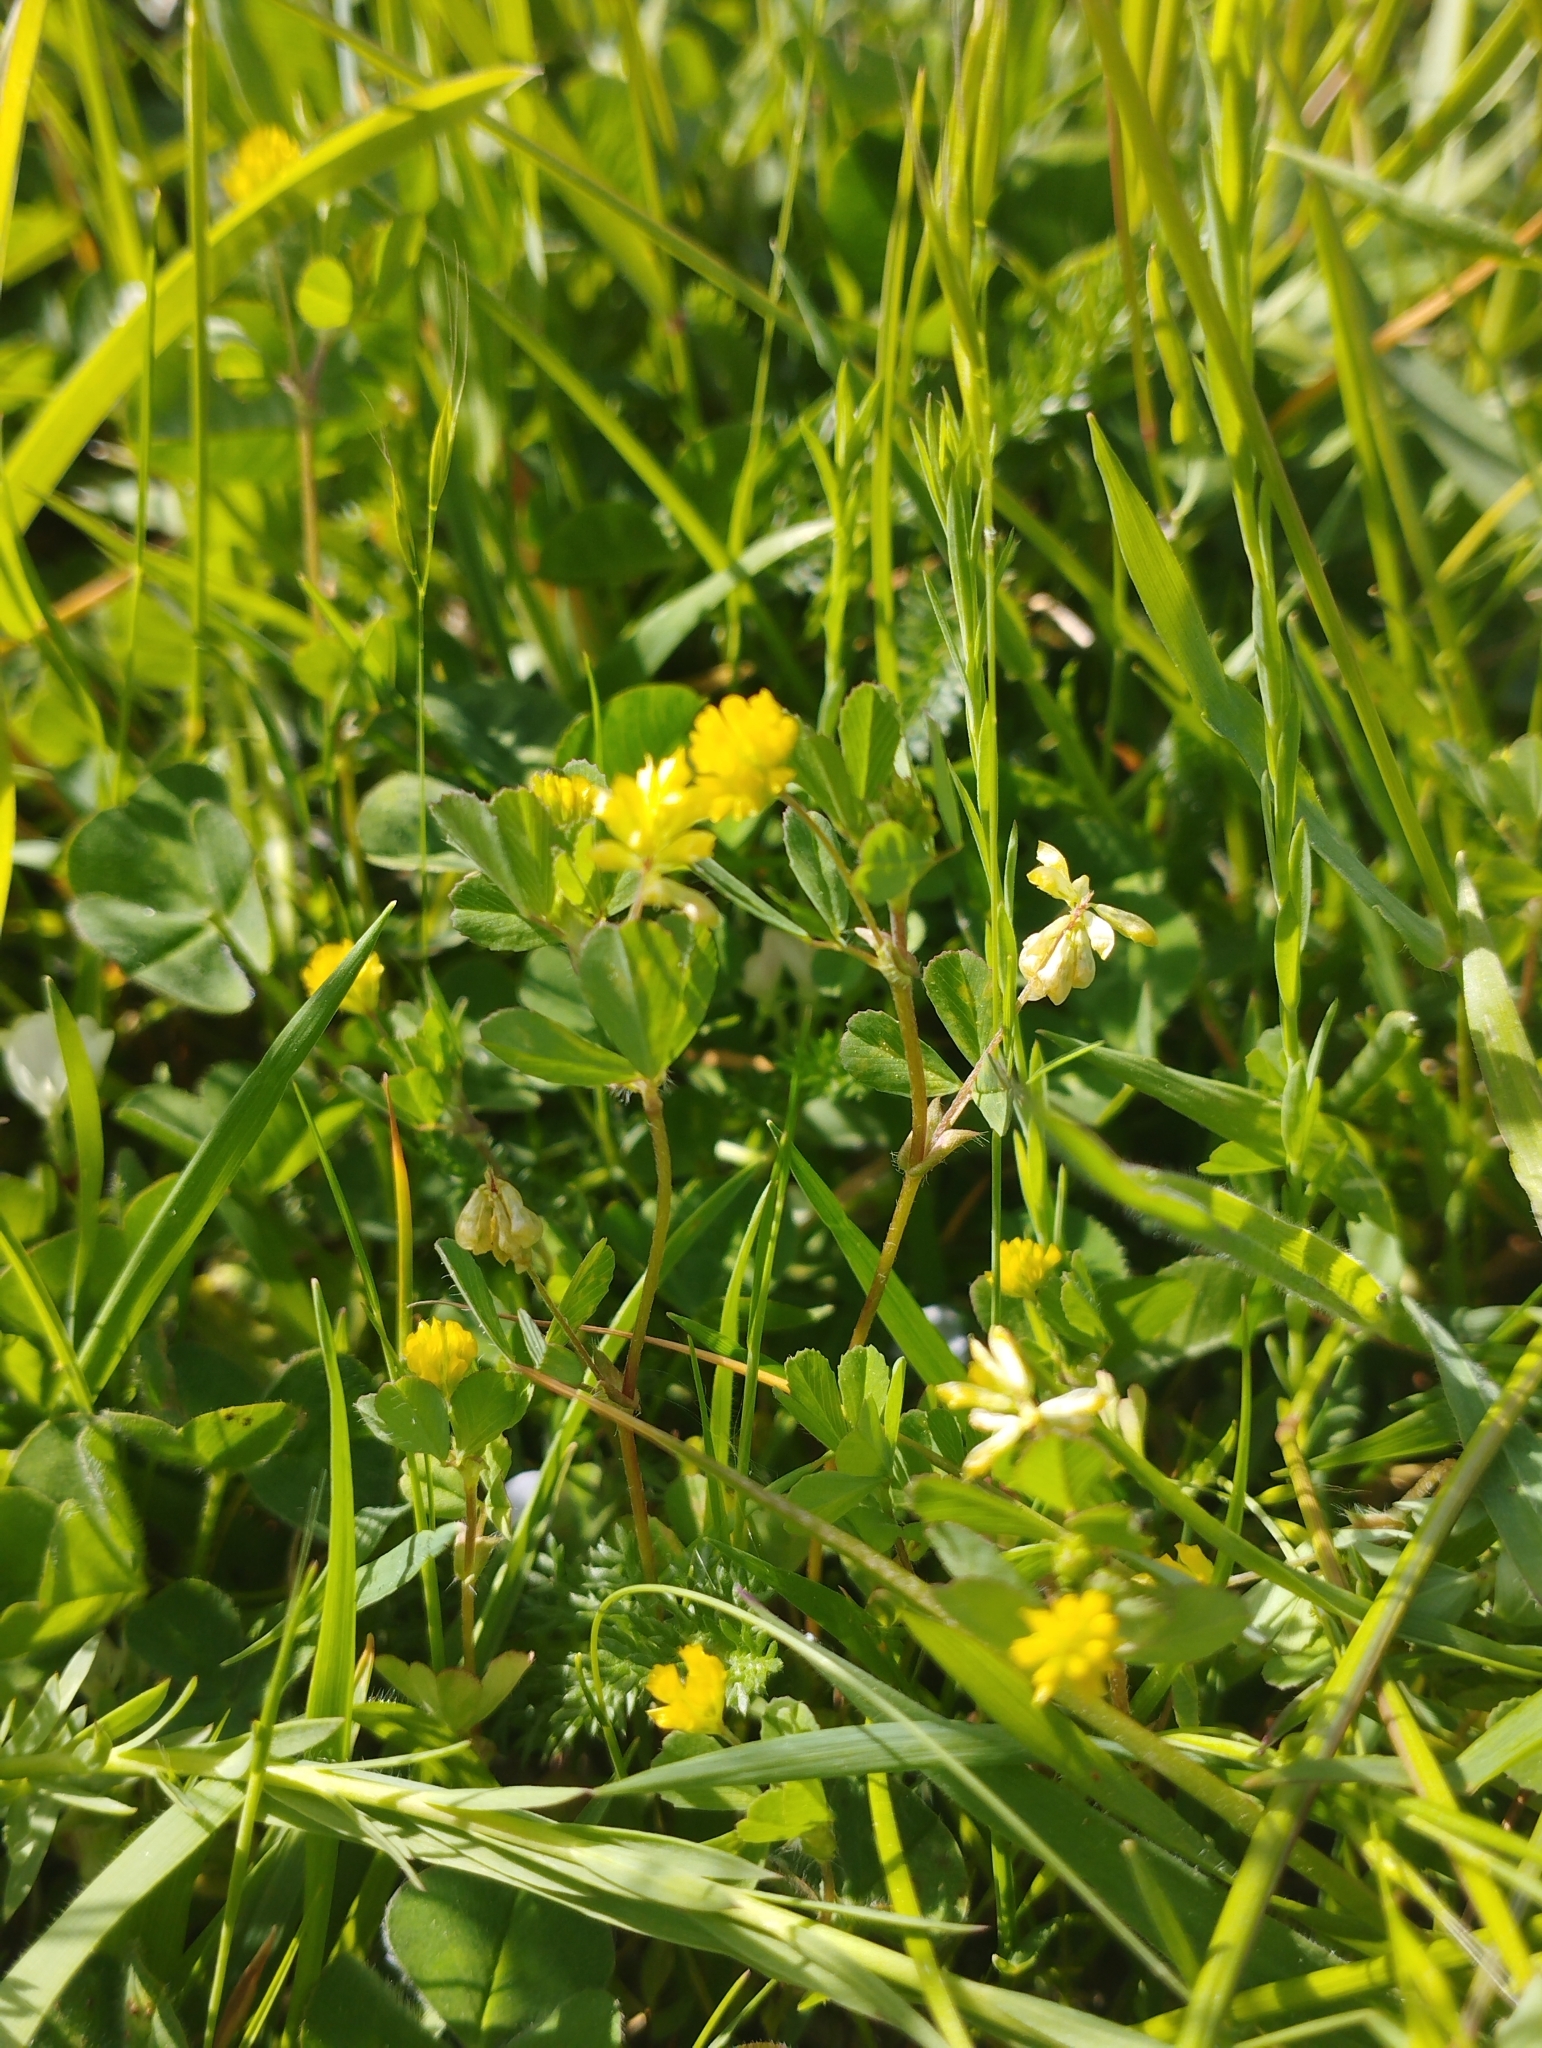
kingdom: Plantae
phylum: Tracheophyta
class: Magnoliopsida
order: Fabales
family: Fabaceae
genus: Trifolium
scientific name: Trifolium dubium
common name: Suckling clover
